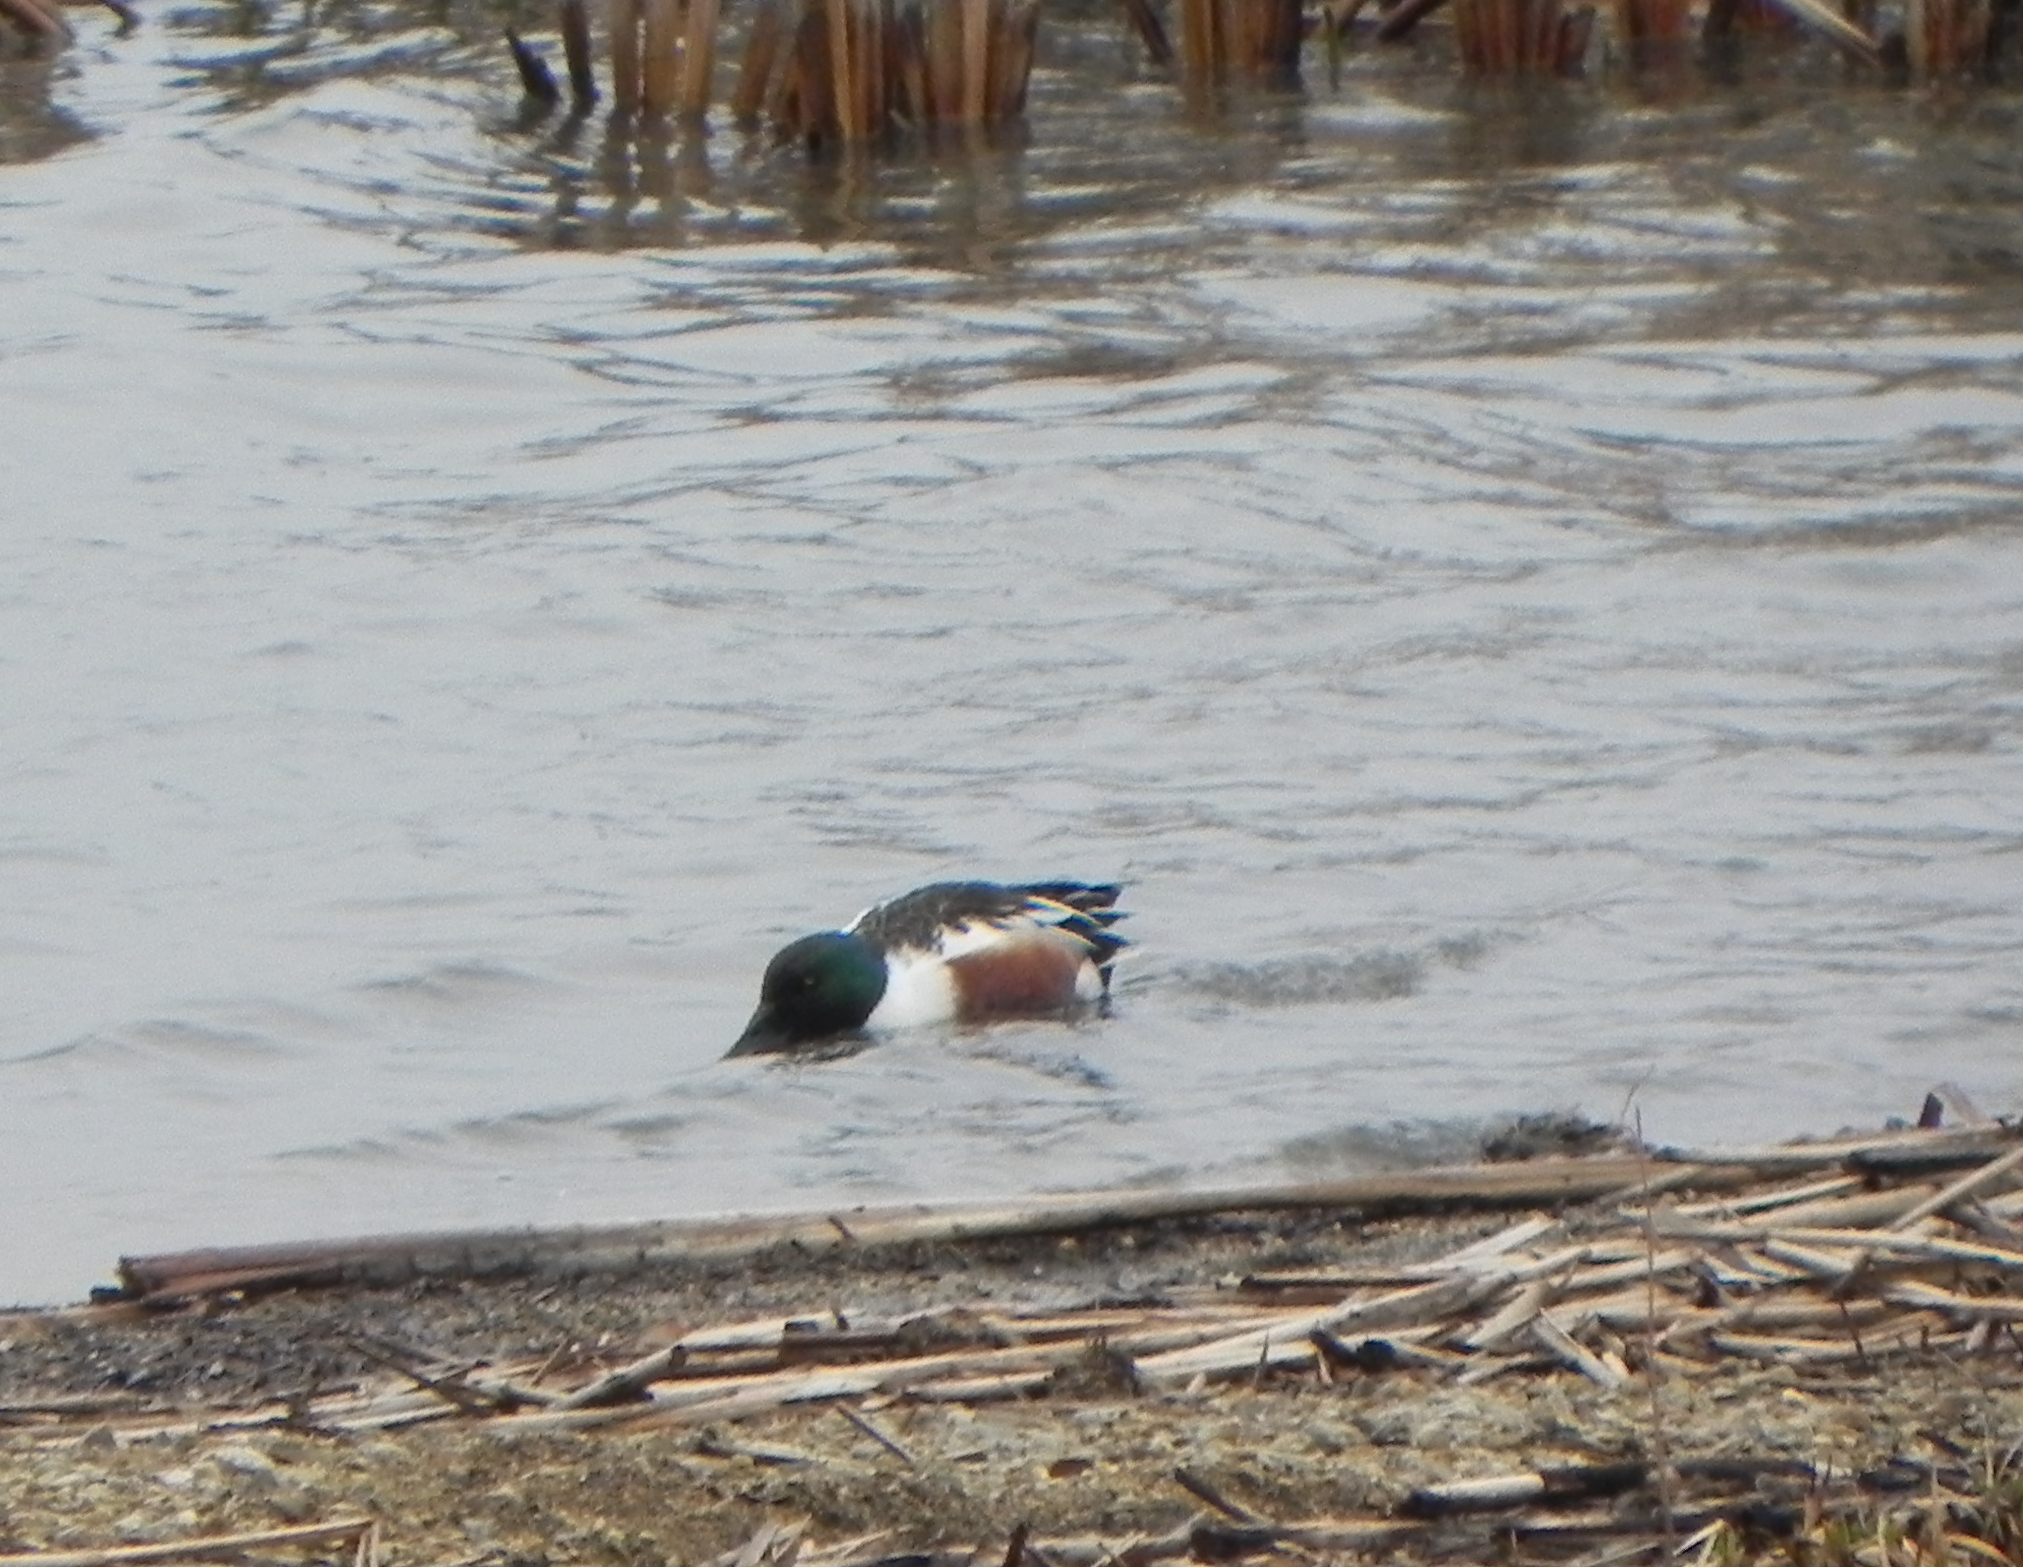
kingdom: Animalia
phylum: Chordata
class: Aves
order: Anseriformes
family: Anatidae
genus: Spatula
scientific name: Spatula clypeata
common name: Northern shoveler
